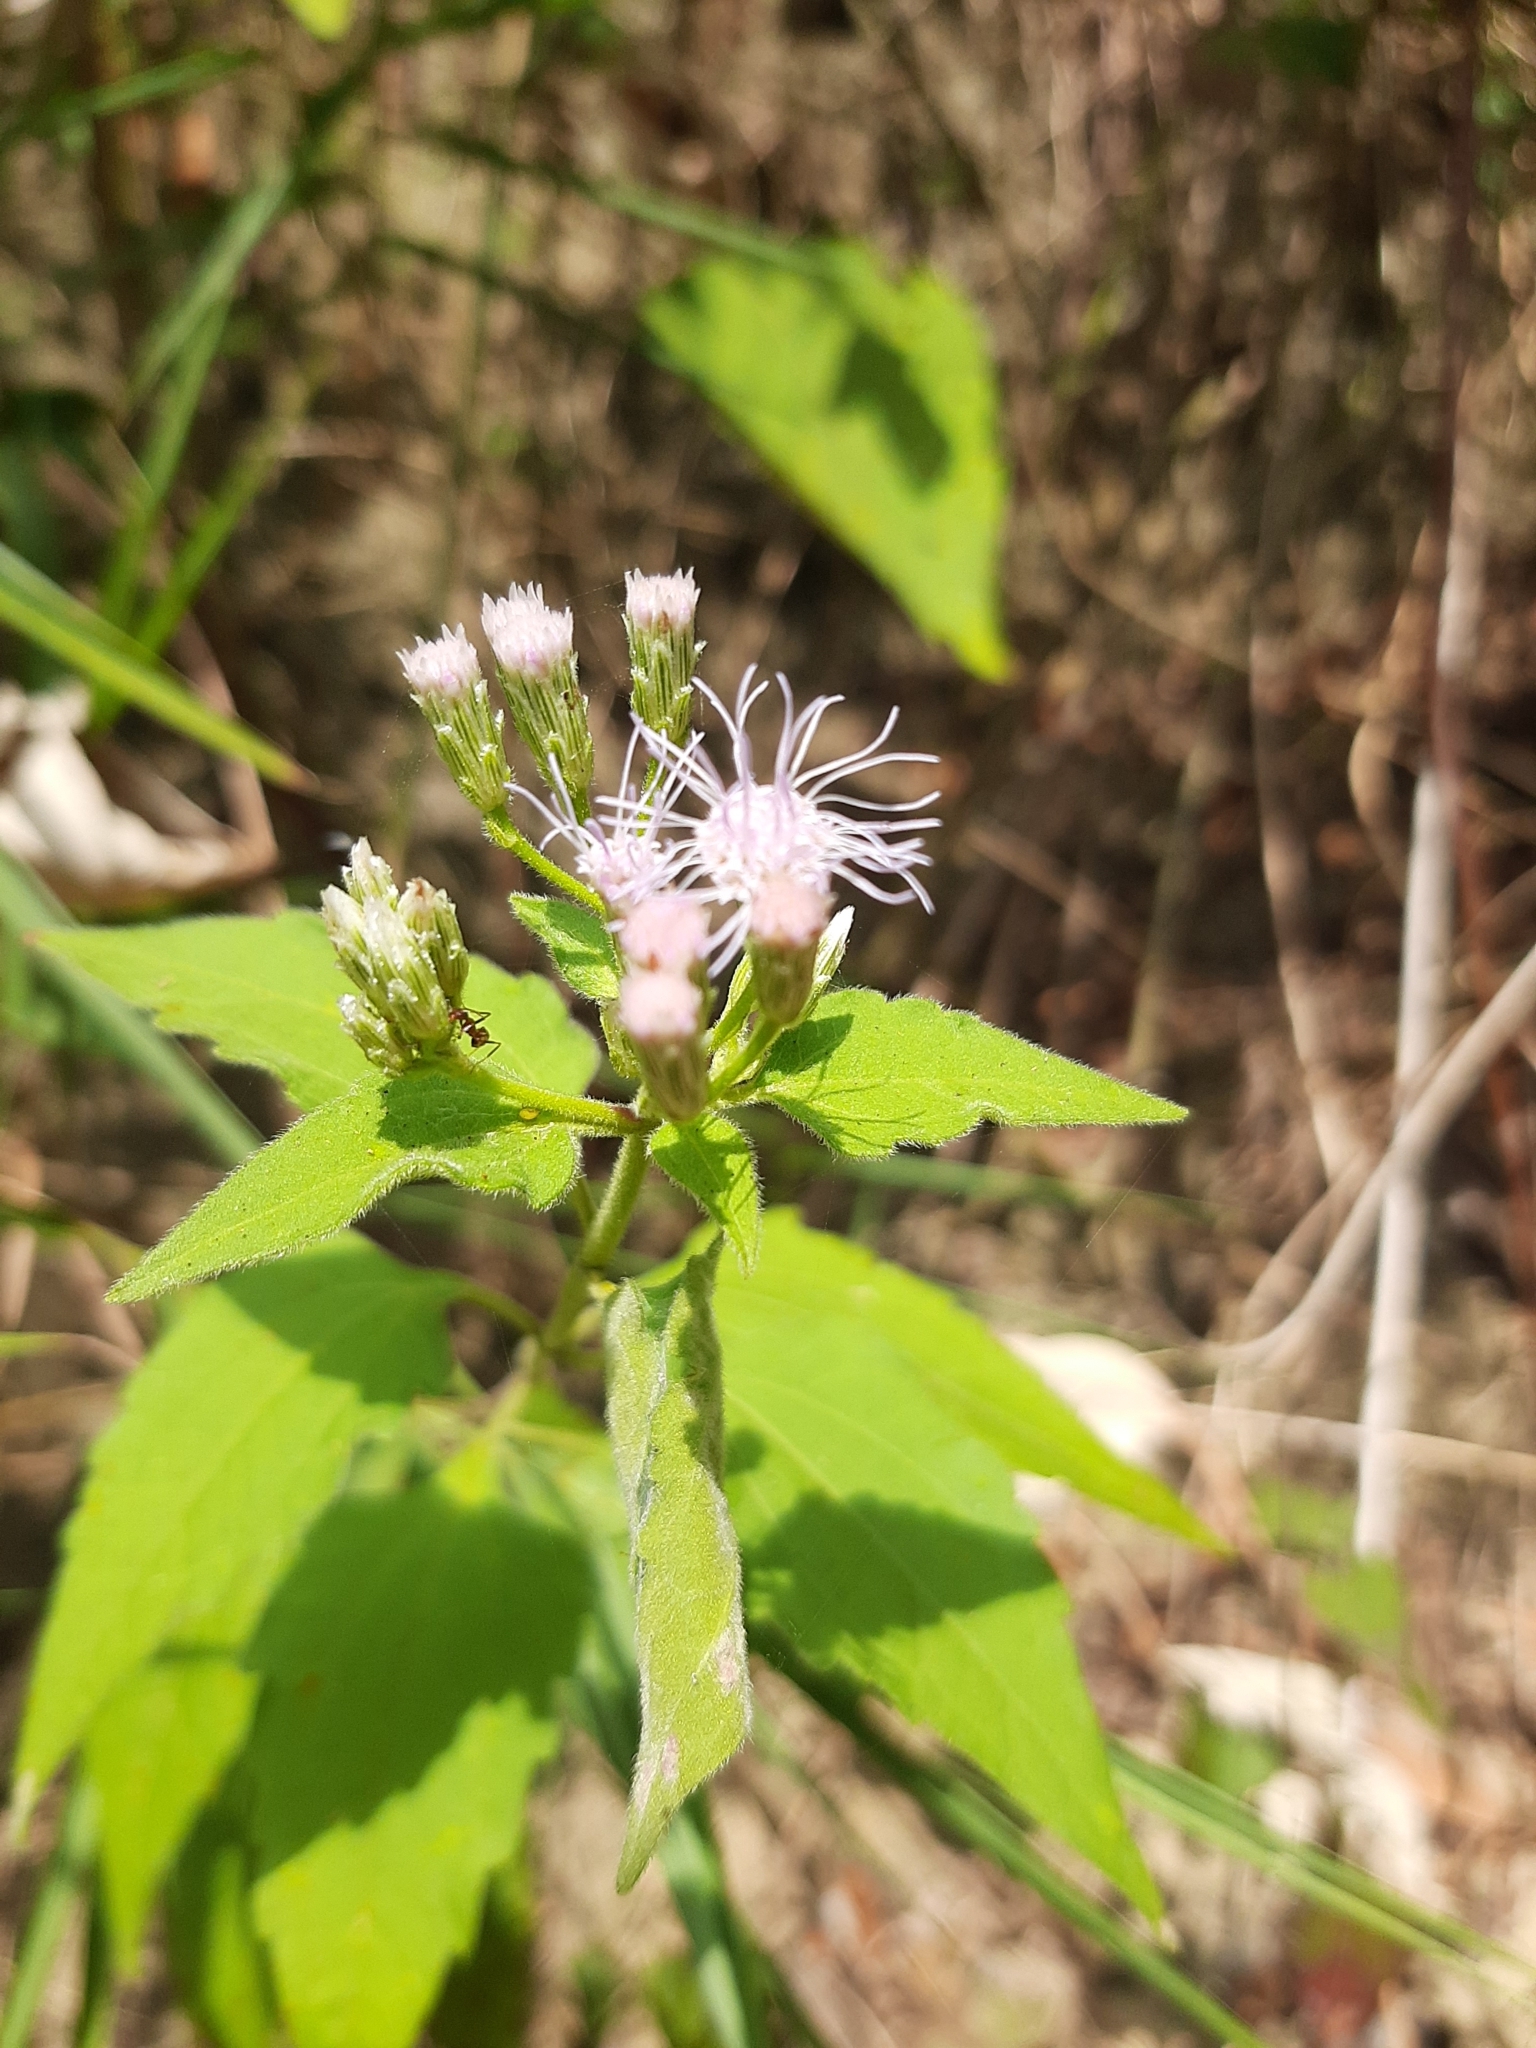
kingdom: Plantae
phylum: Tracheophyta
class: Magnoliopsida
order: Asterales
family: Asteraceae
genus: Chromolaena
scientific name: Chromolaena odorata
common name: Siamweed
